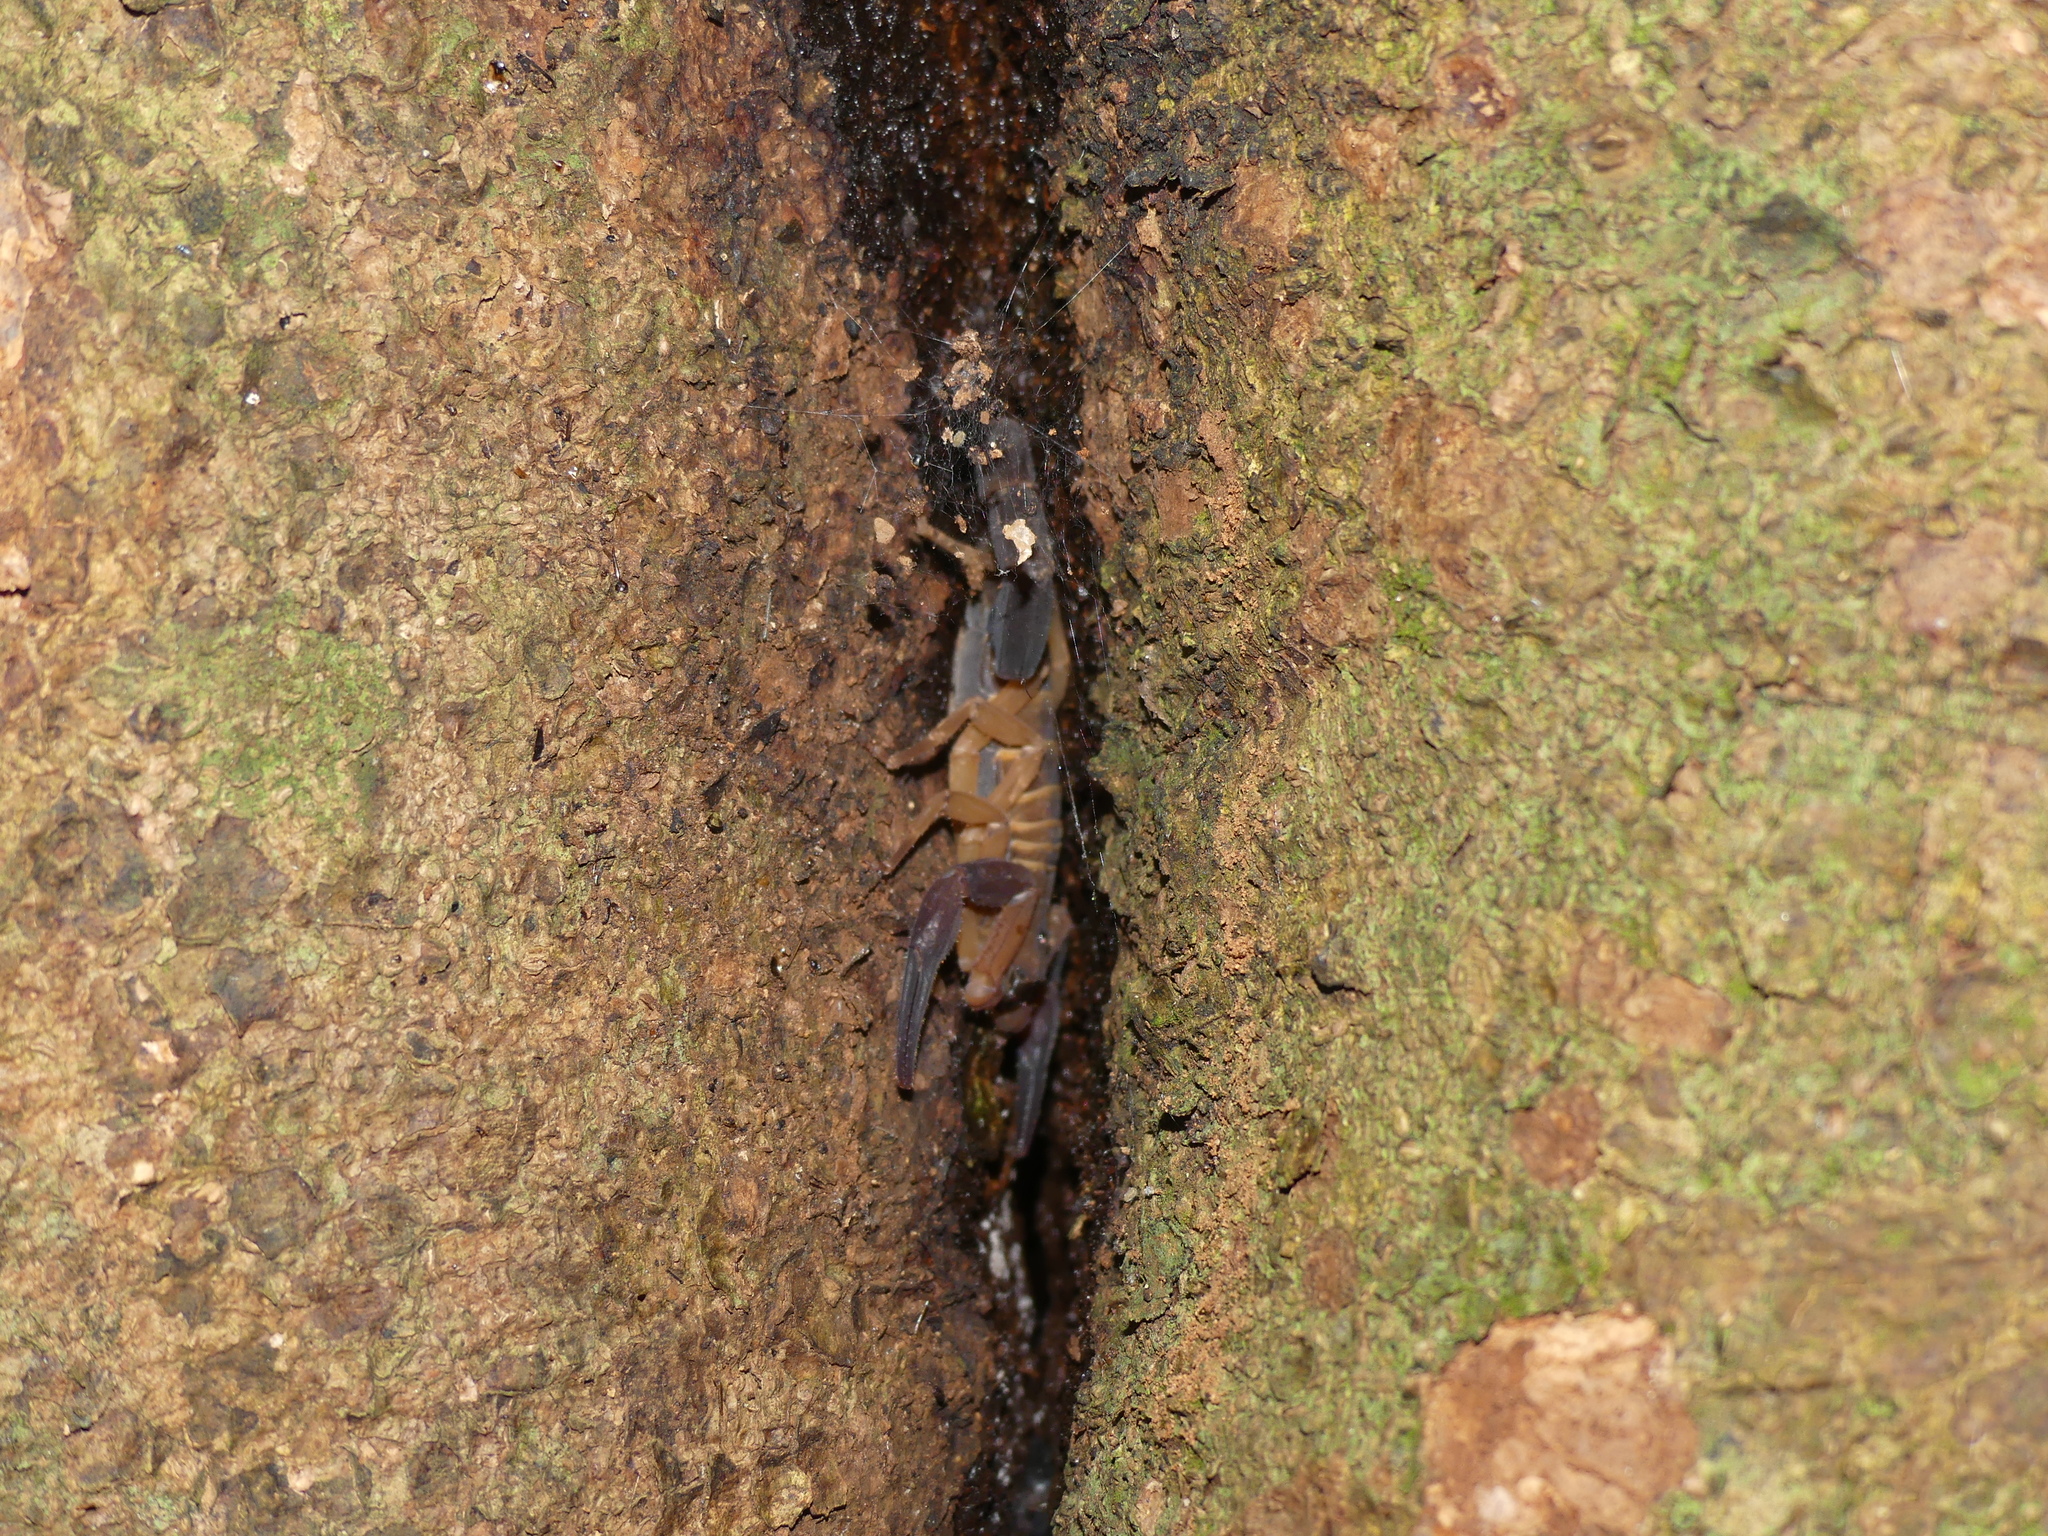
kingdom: Animalia
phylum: Arthropoda
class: Arachnida
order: Scorpiones
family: Buthidae
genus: Babycurus
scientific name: Babycurus gigas
